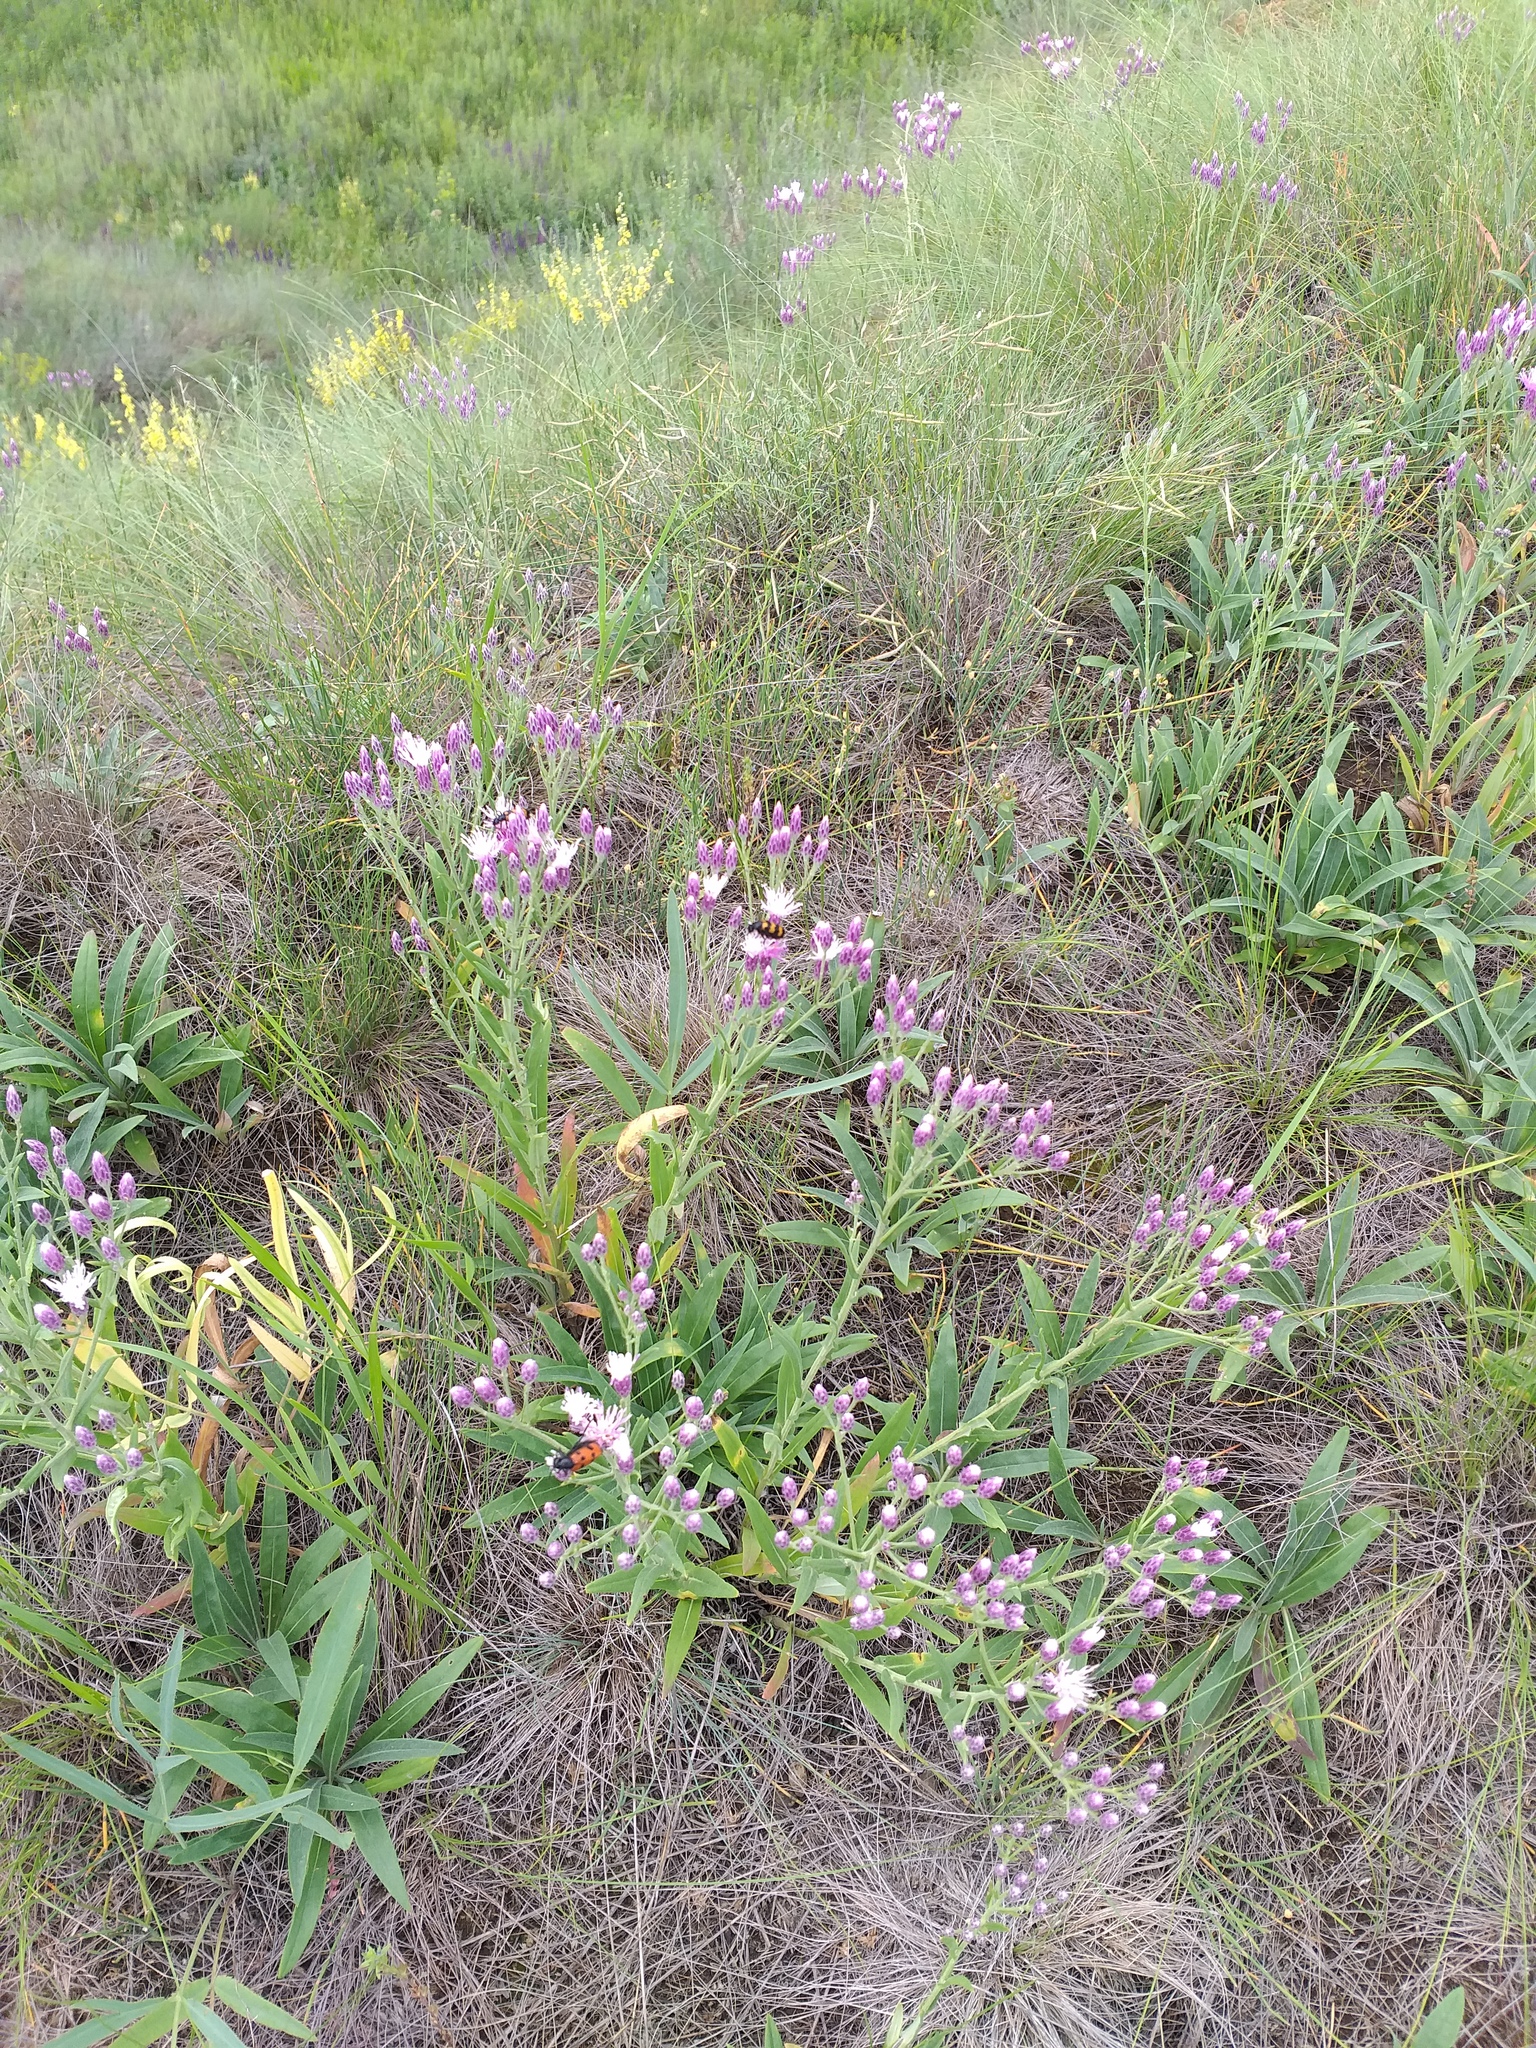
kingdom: Plantae
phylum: Tracheophyta
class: Magnoliopsida
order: Asterales
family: Asteraceae
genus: Jurinea
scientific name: Jurinea multiflora
